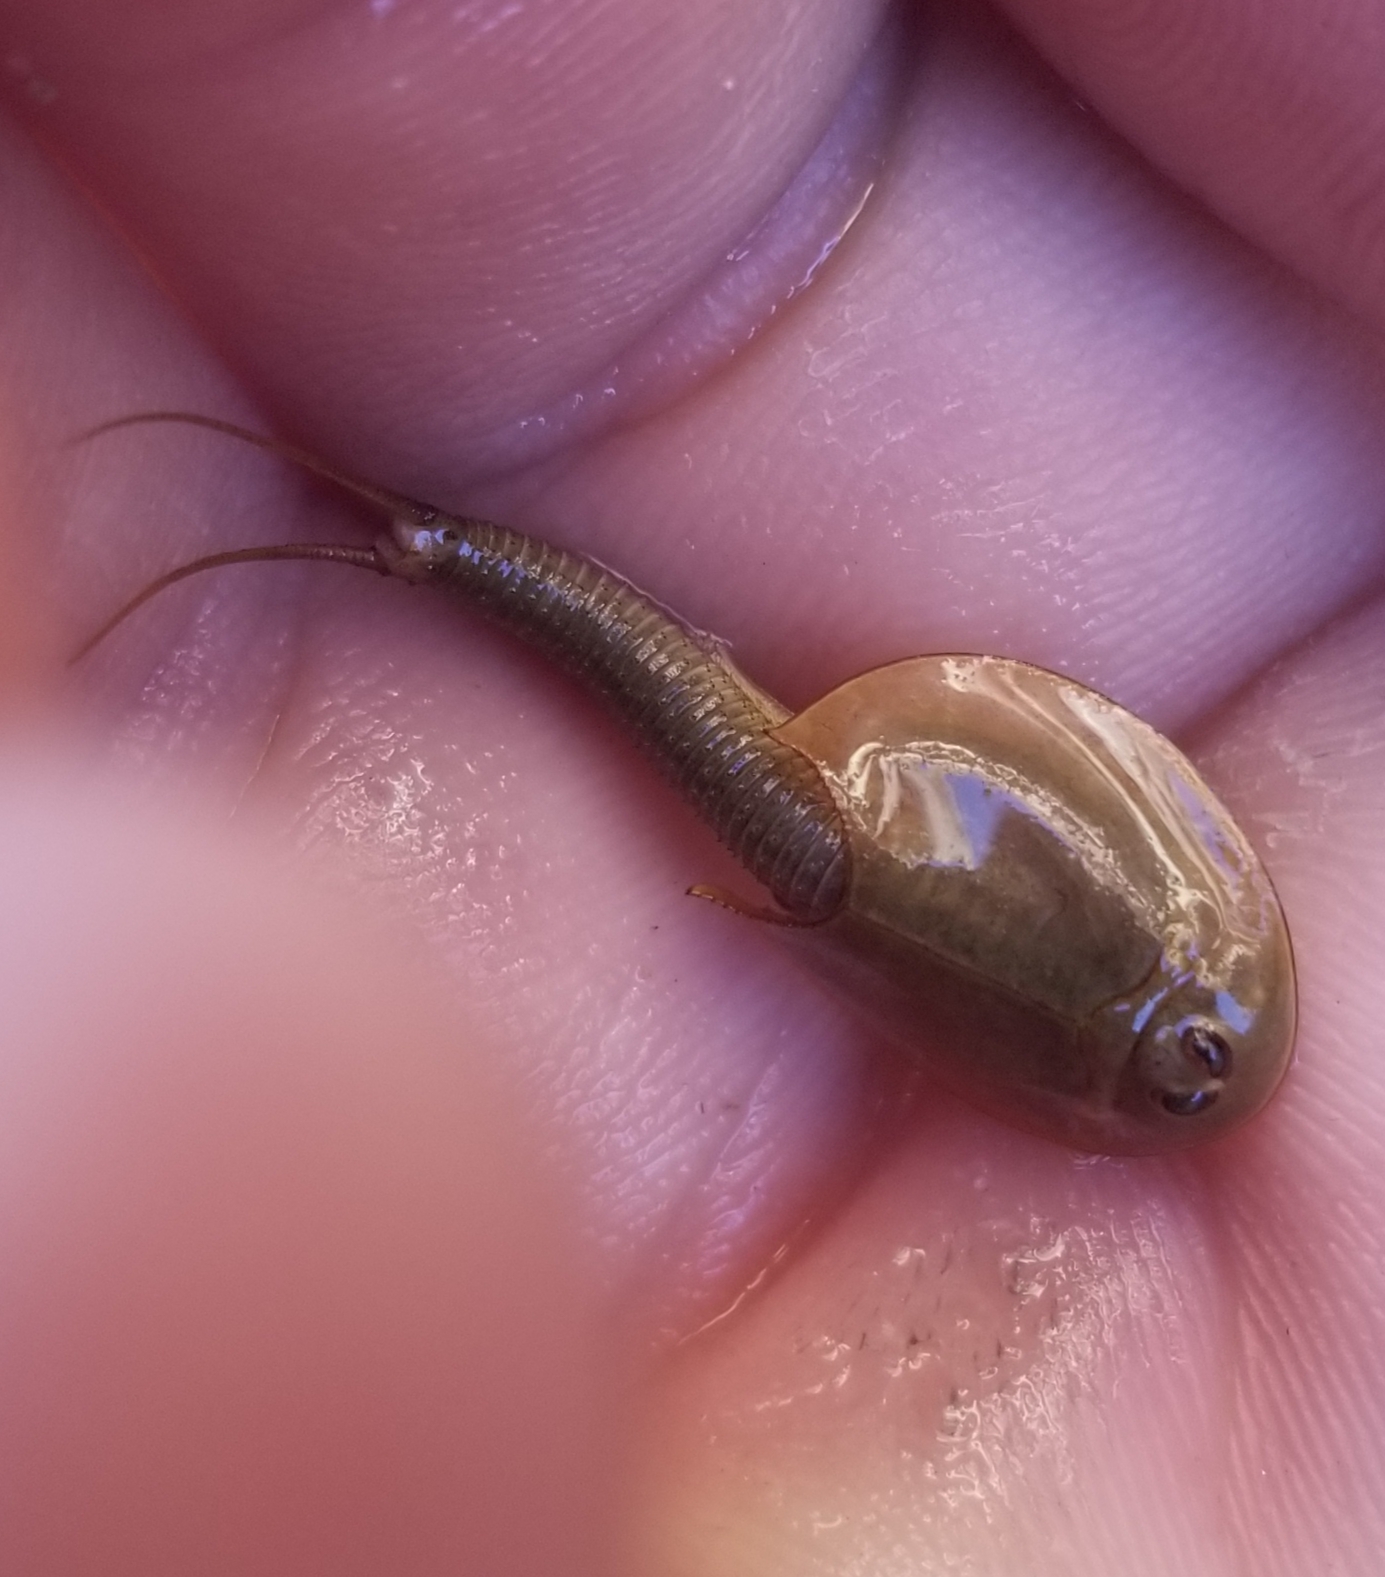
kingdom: Animalia
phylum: Arthropoda
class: Branchiopoda
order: Notostraca
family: Triopsidae
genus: Triops
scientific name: Triops longicaudatus
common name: Summer tadpole shrimp
